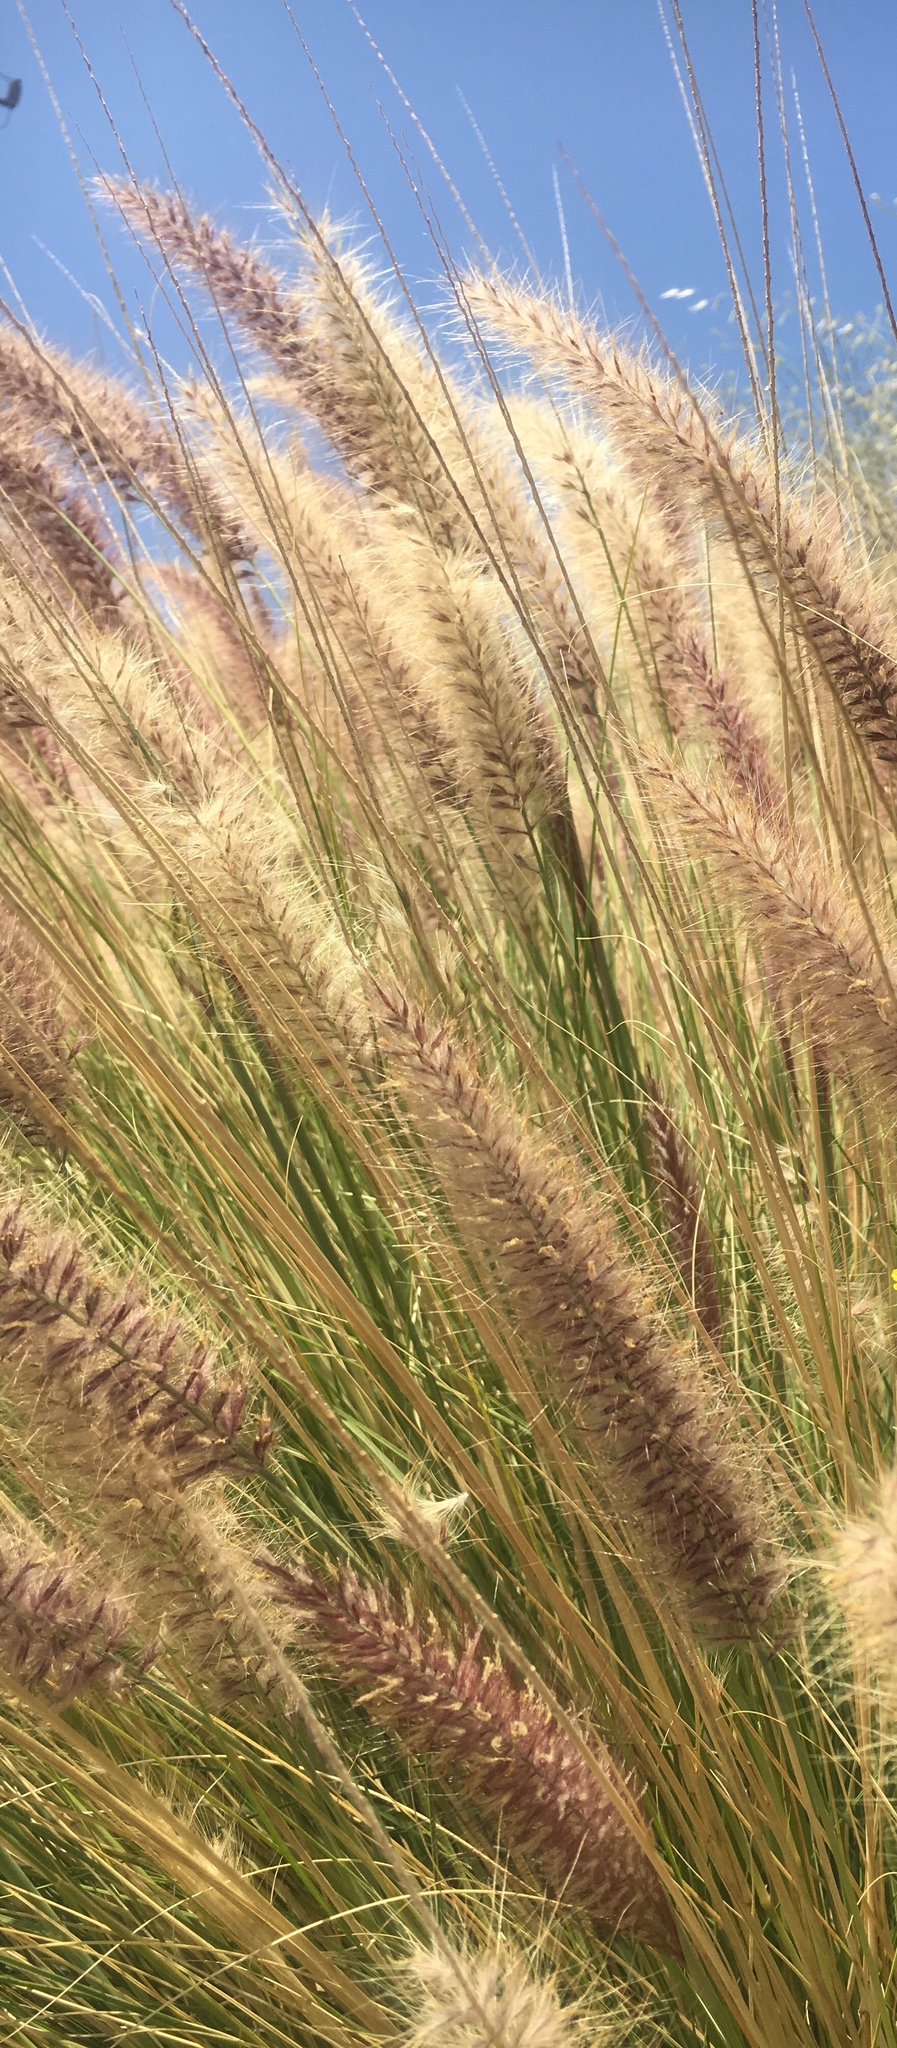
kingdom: Plantae
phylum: Tracheophyta
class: Liliopsida
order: Poales
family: Poaceae
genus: Cenchrus
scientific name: Cenchrus setaceus
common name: Crimson fountaingrass
